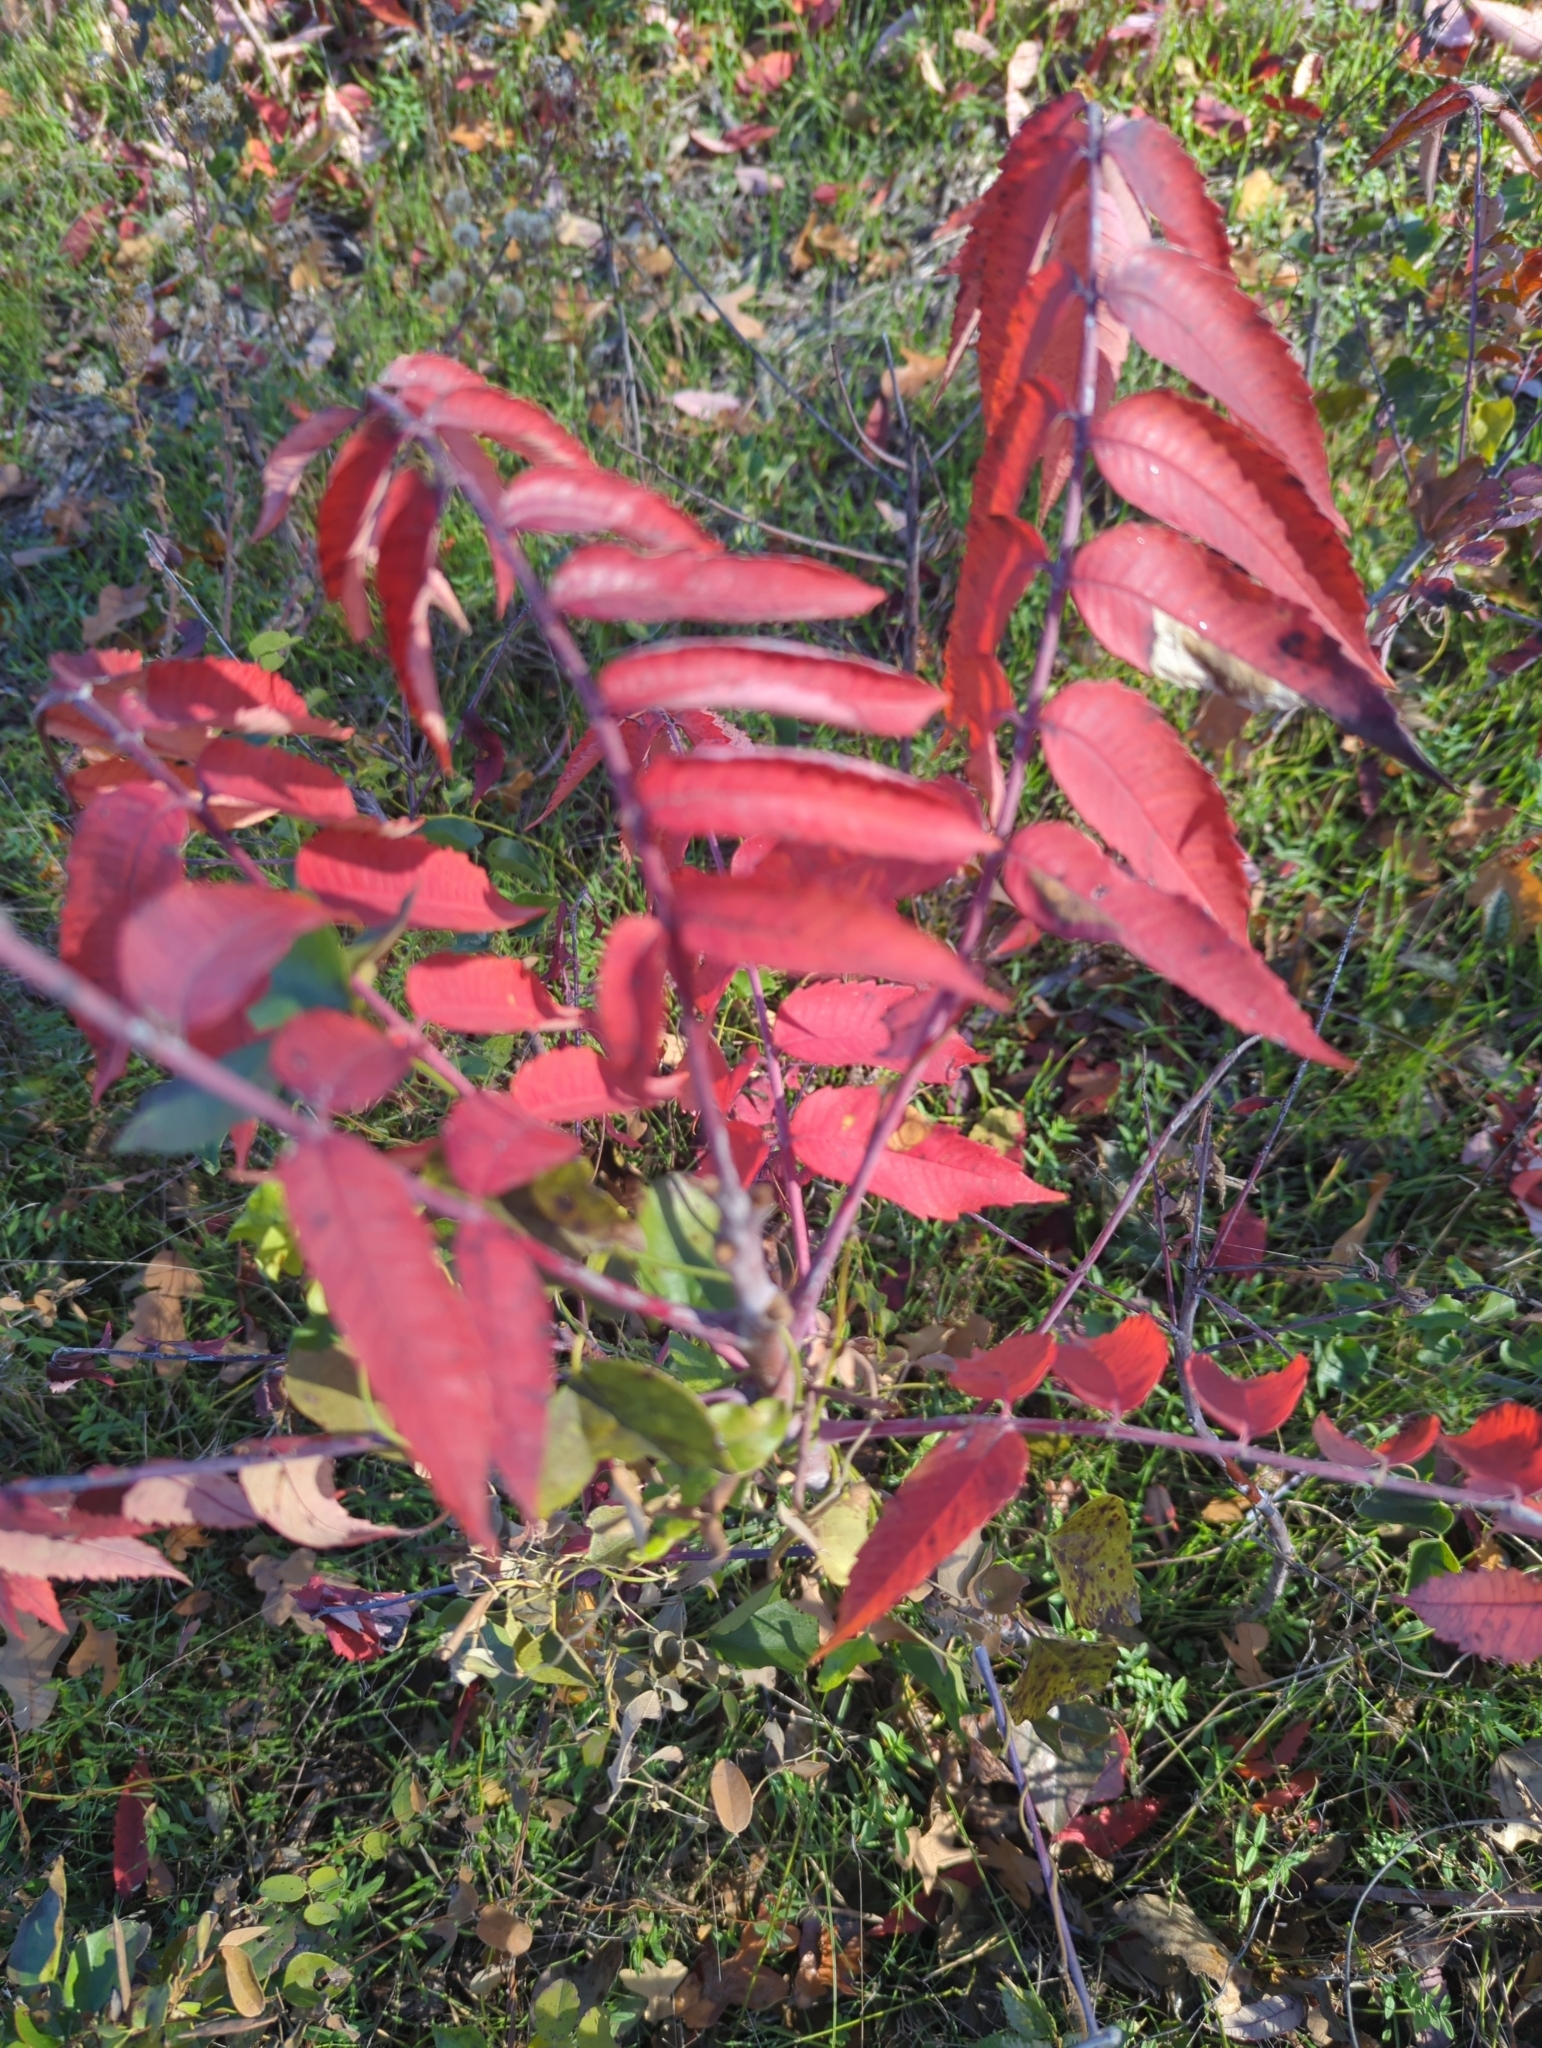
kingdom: Plantae
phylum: Tracheophyta
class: Magnoliopsida
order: Sapindales
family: Anacardiaceae
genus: Rhus
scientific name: Rhus glabra
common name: Scarlet sumac
